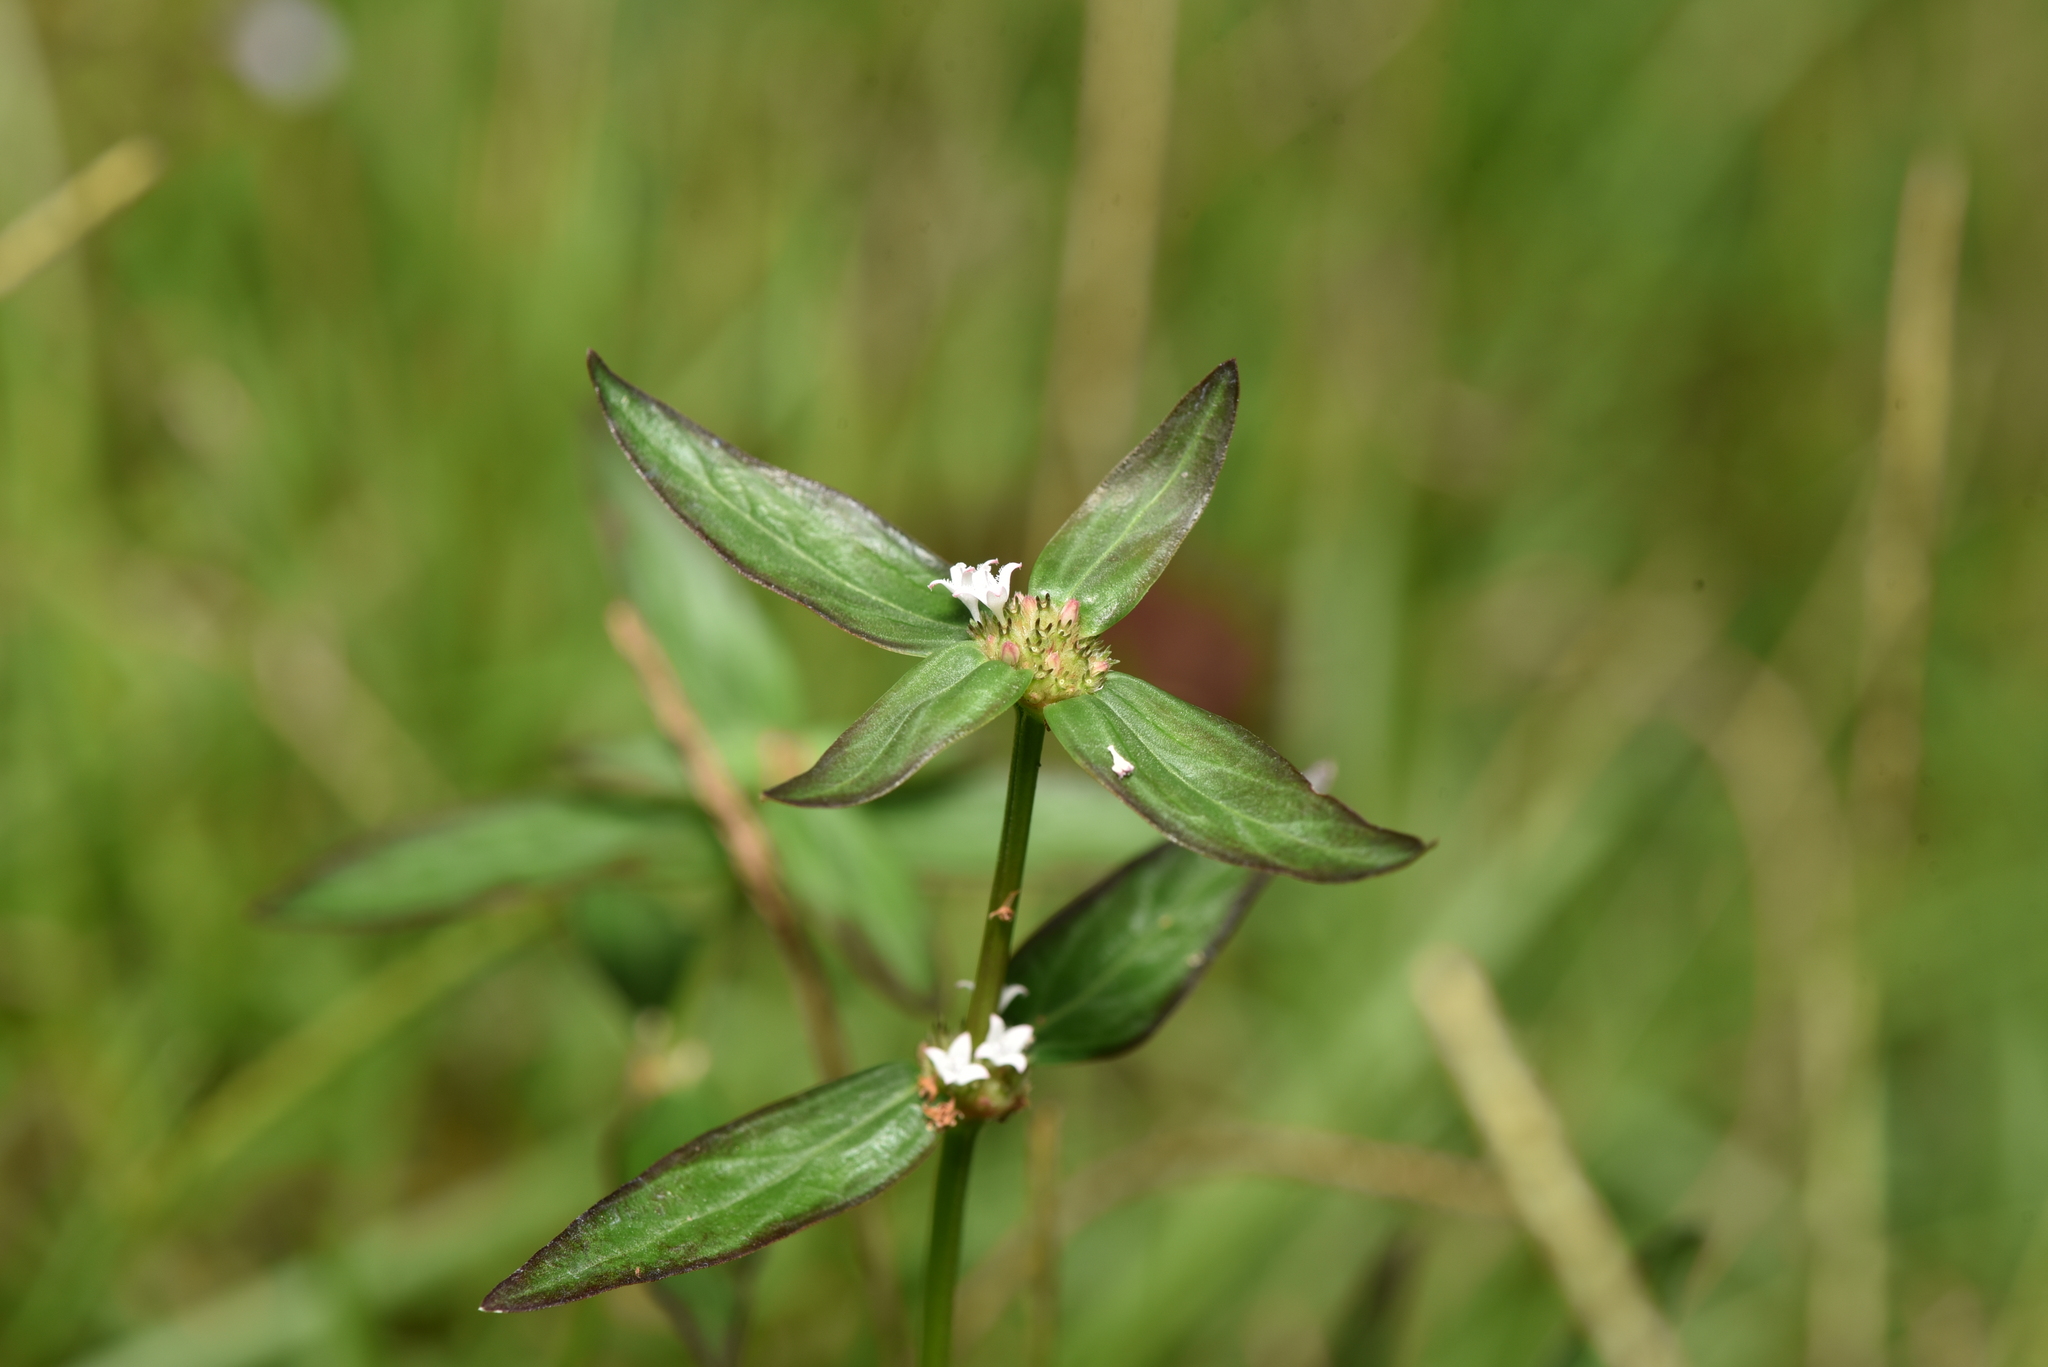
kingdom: Plantae
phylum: Tracheophyta
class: Magnoliopsida
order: Gentianales
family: Rubiaceae
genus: Spermacoce
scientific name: Spermacoce remota
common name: Woodland false buttonweed
